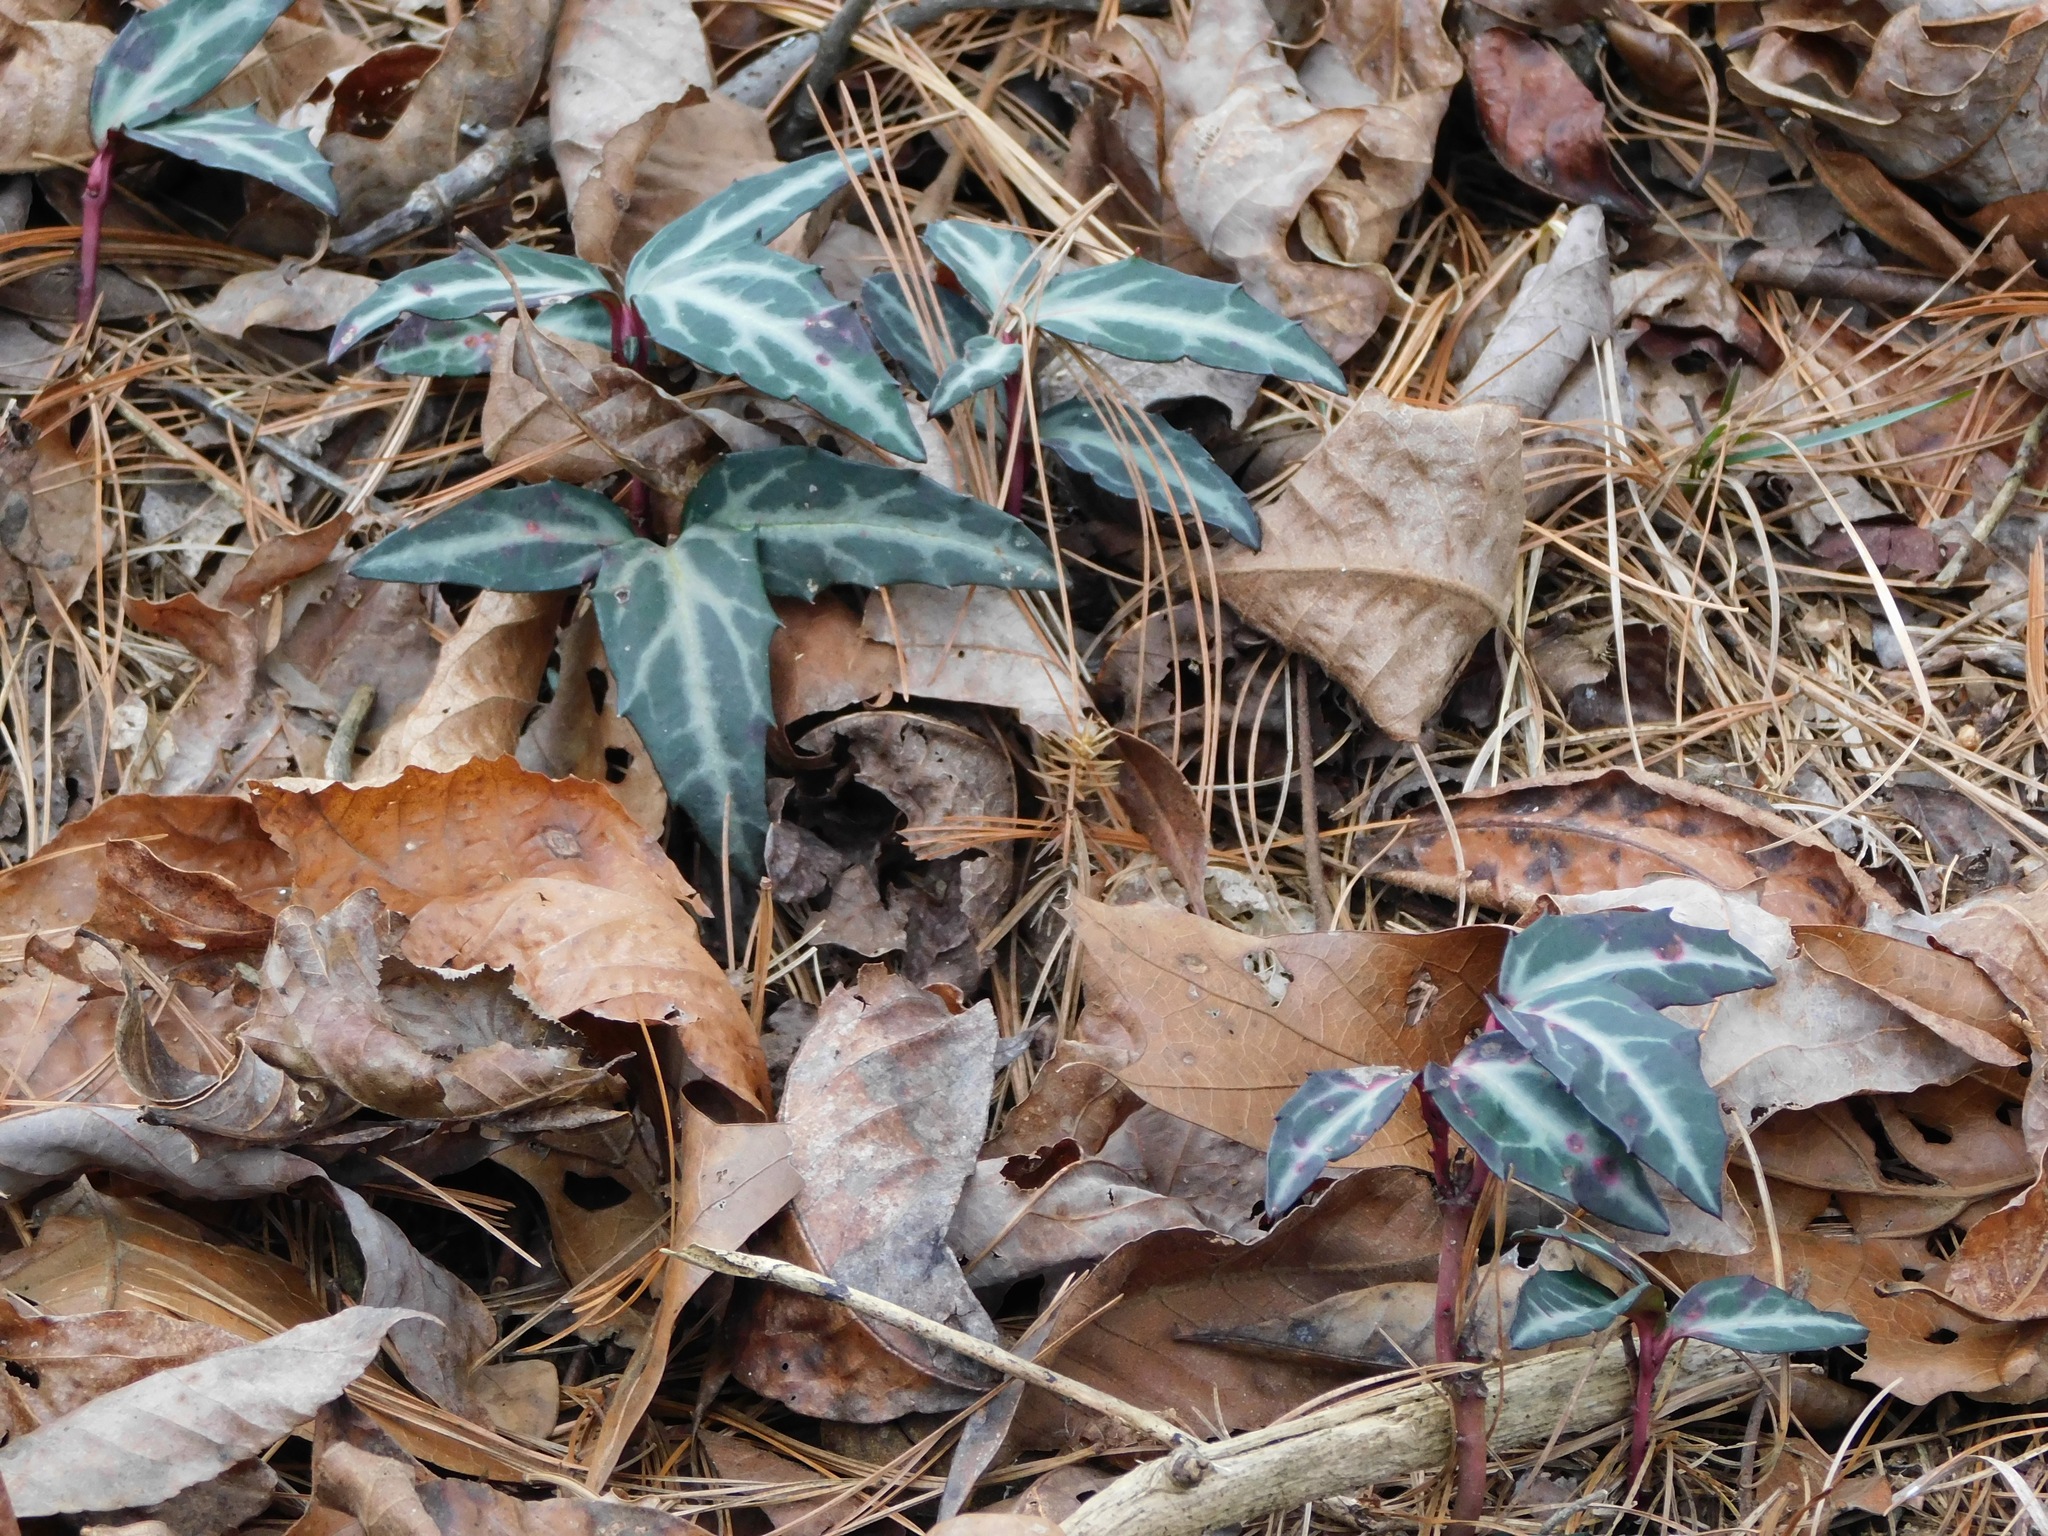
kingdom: Plantae
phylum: Tracheophyta
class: Magnoliopsida
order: Ericales
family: Ericaceae
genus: Chimaphila
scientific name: Chimaphila maculata
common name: Spotted pipsissewa
